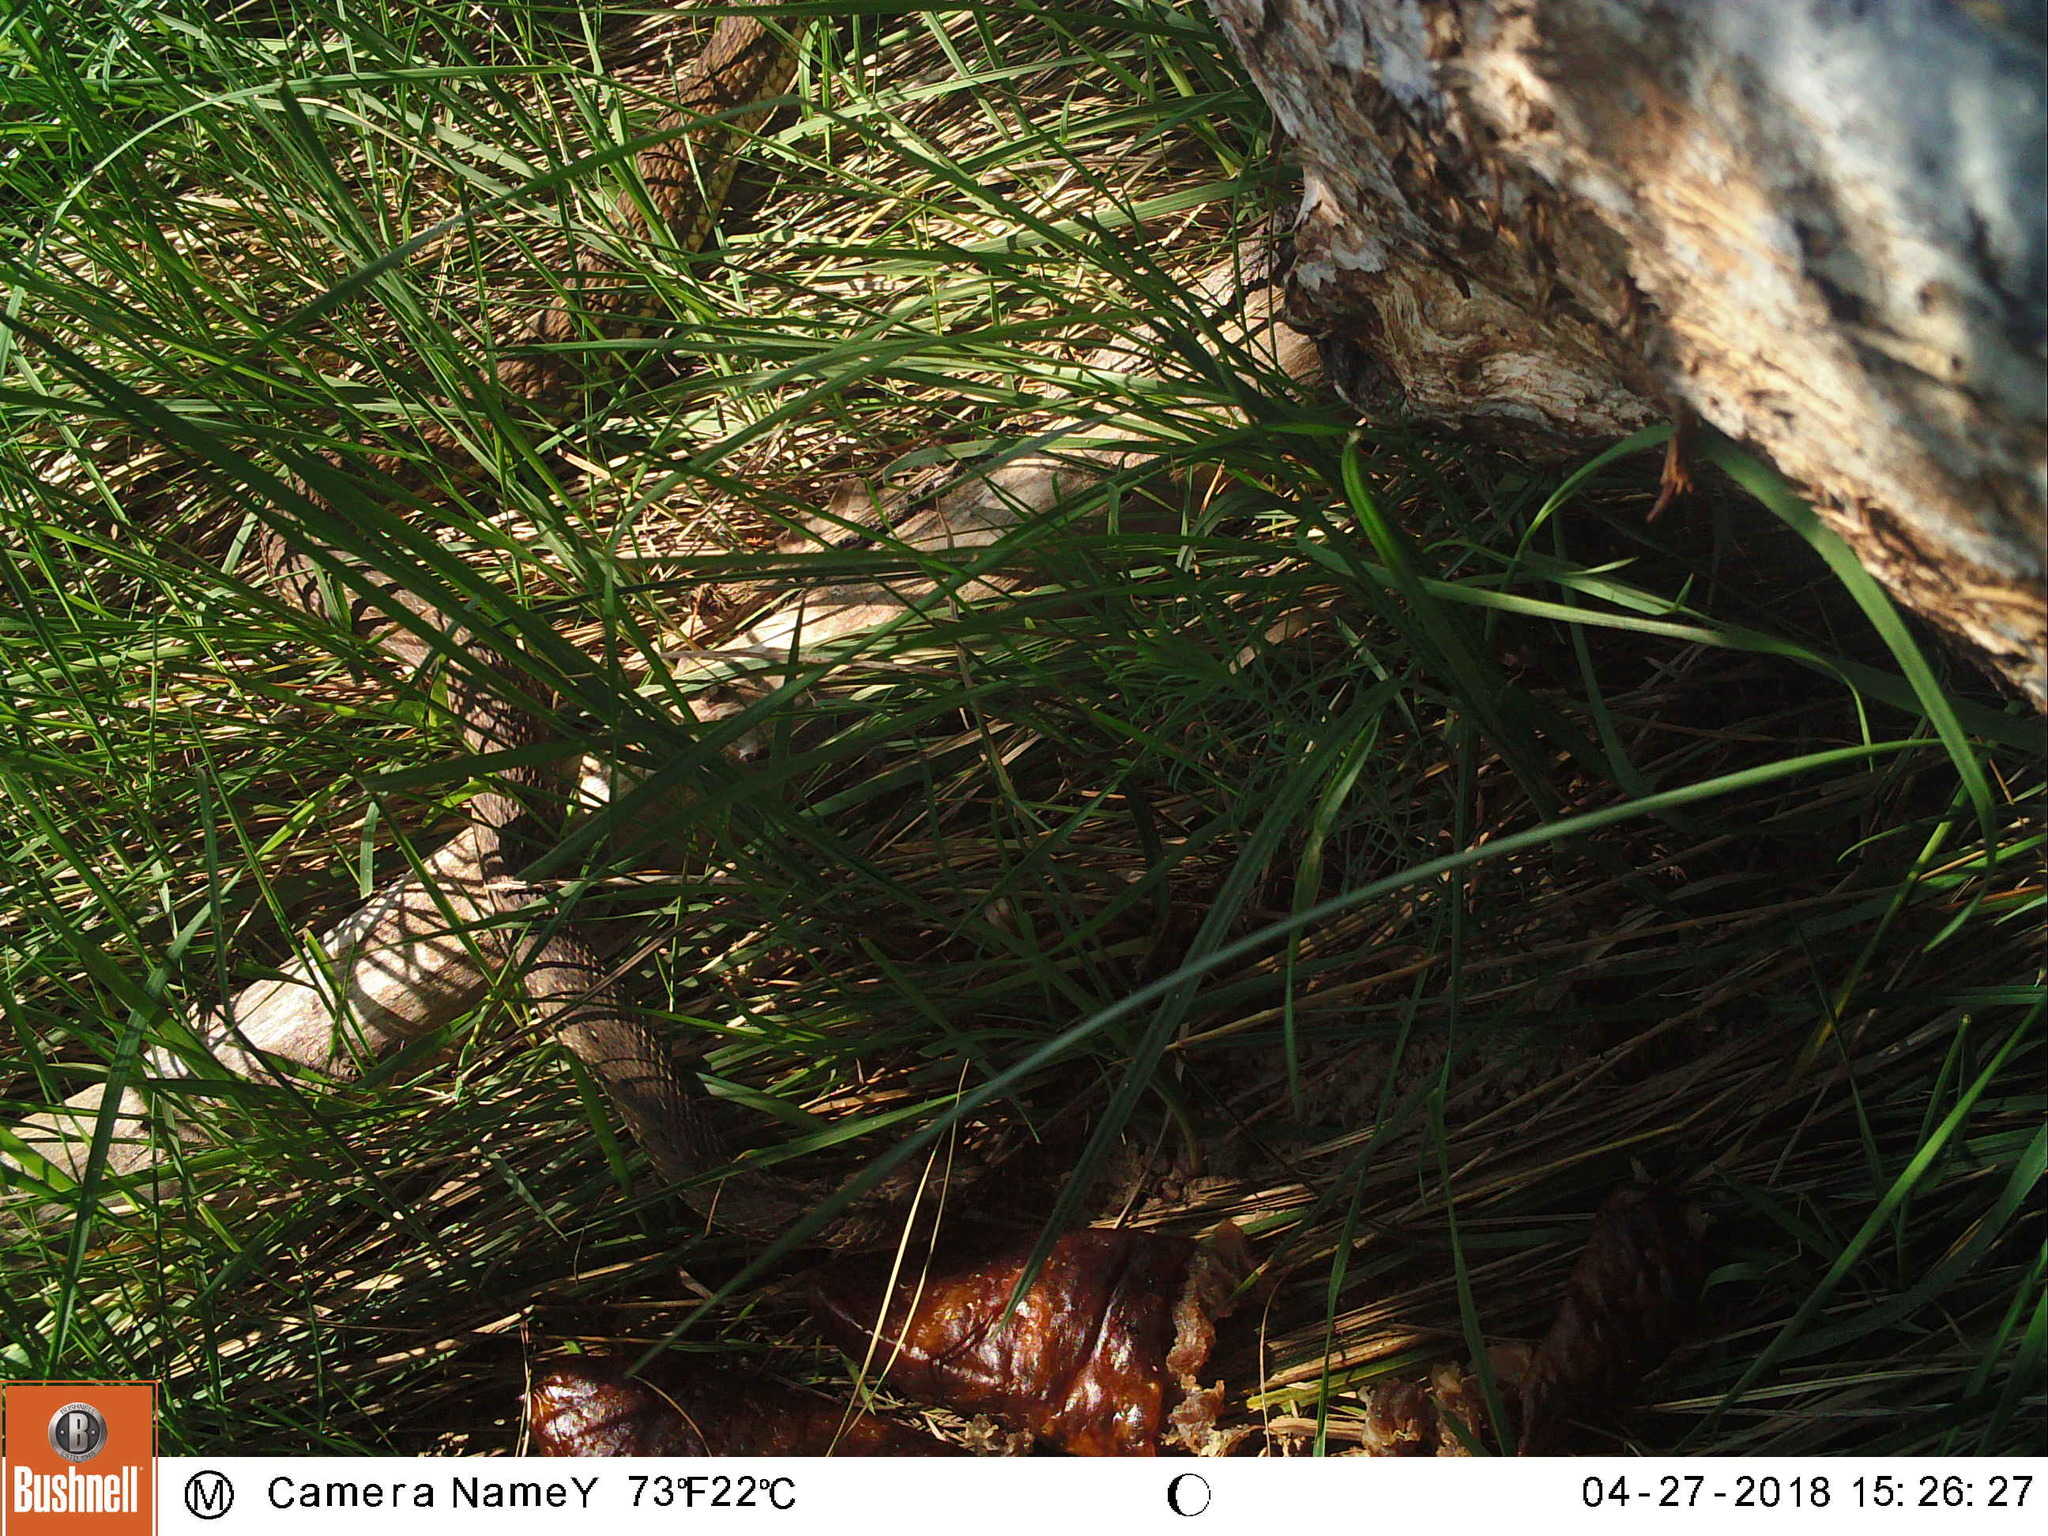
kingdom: Animalia
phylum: Chordata
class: Squamata
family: Psammophiidae
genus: Malpolon
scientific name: Malpolon monspessulanus
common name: Montpellier snake
